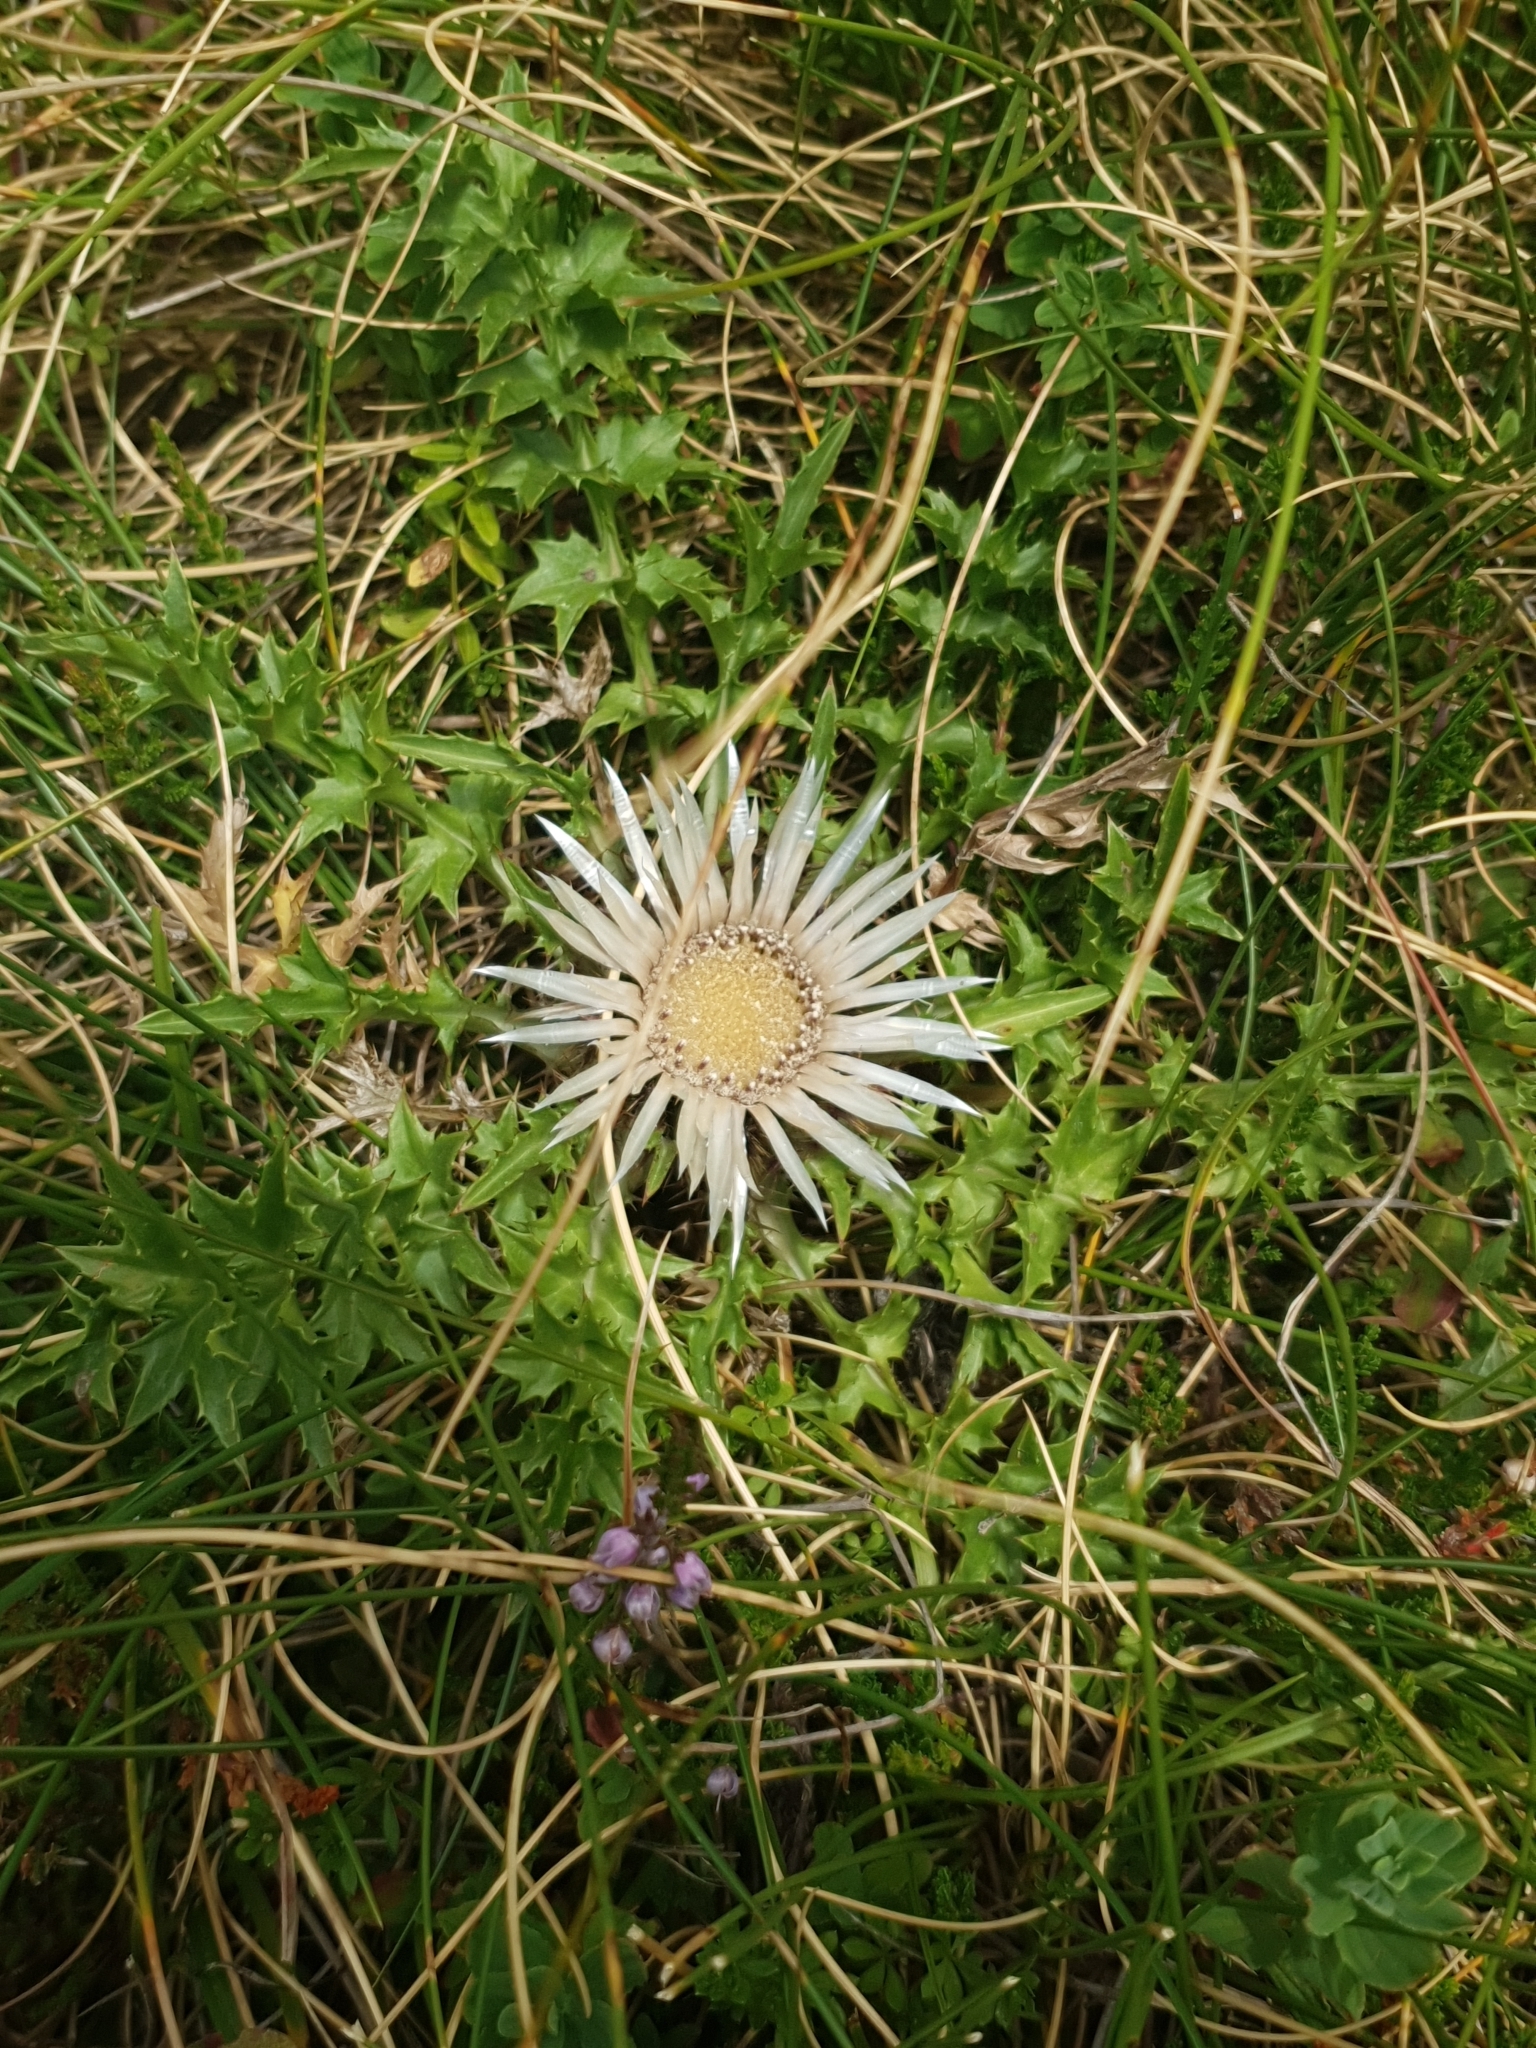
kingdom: Plantae
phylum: Tracheophyta
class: Magnoliopsida
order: Asterales
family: Asteraceae
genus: Carlina
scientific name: Carlina acaulis
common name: Stemless carline thistle
